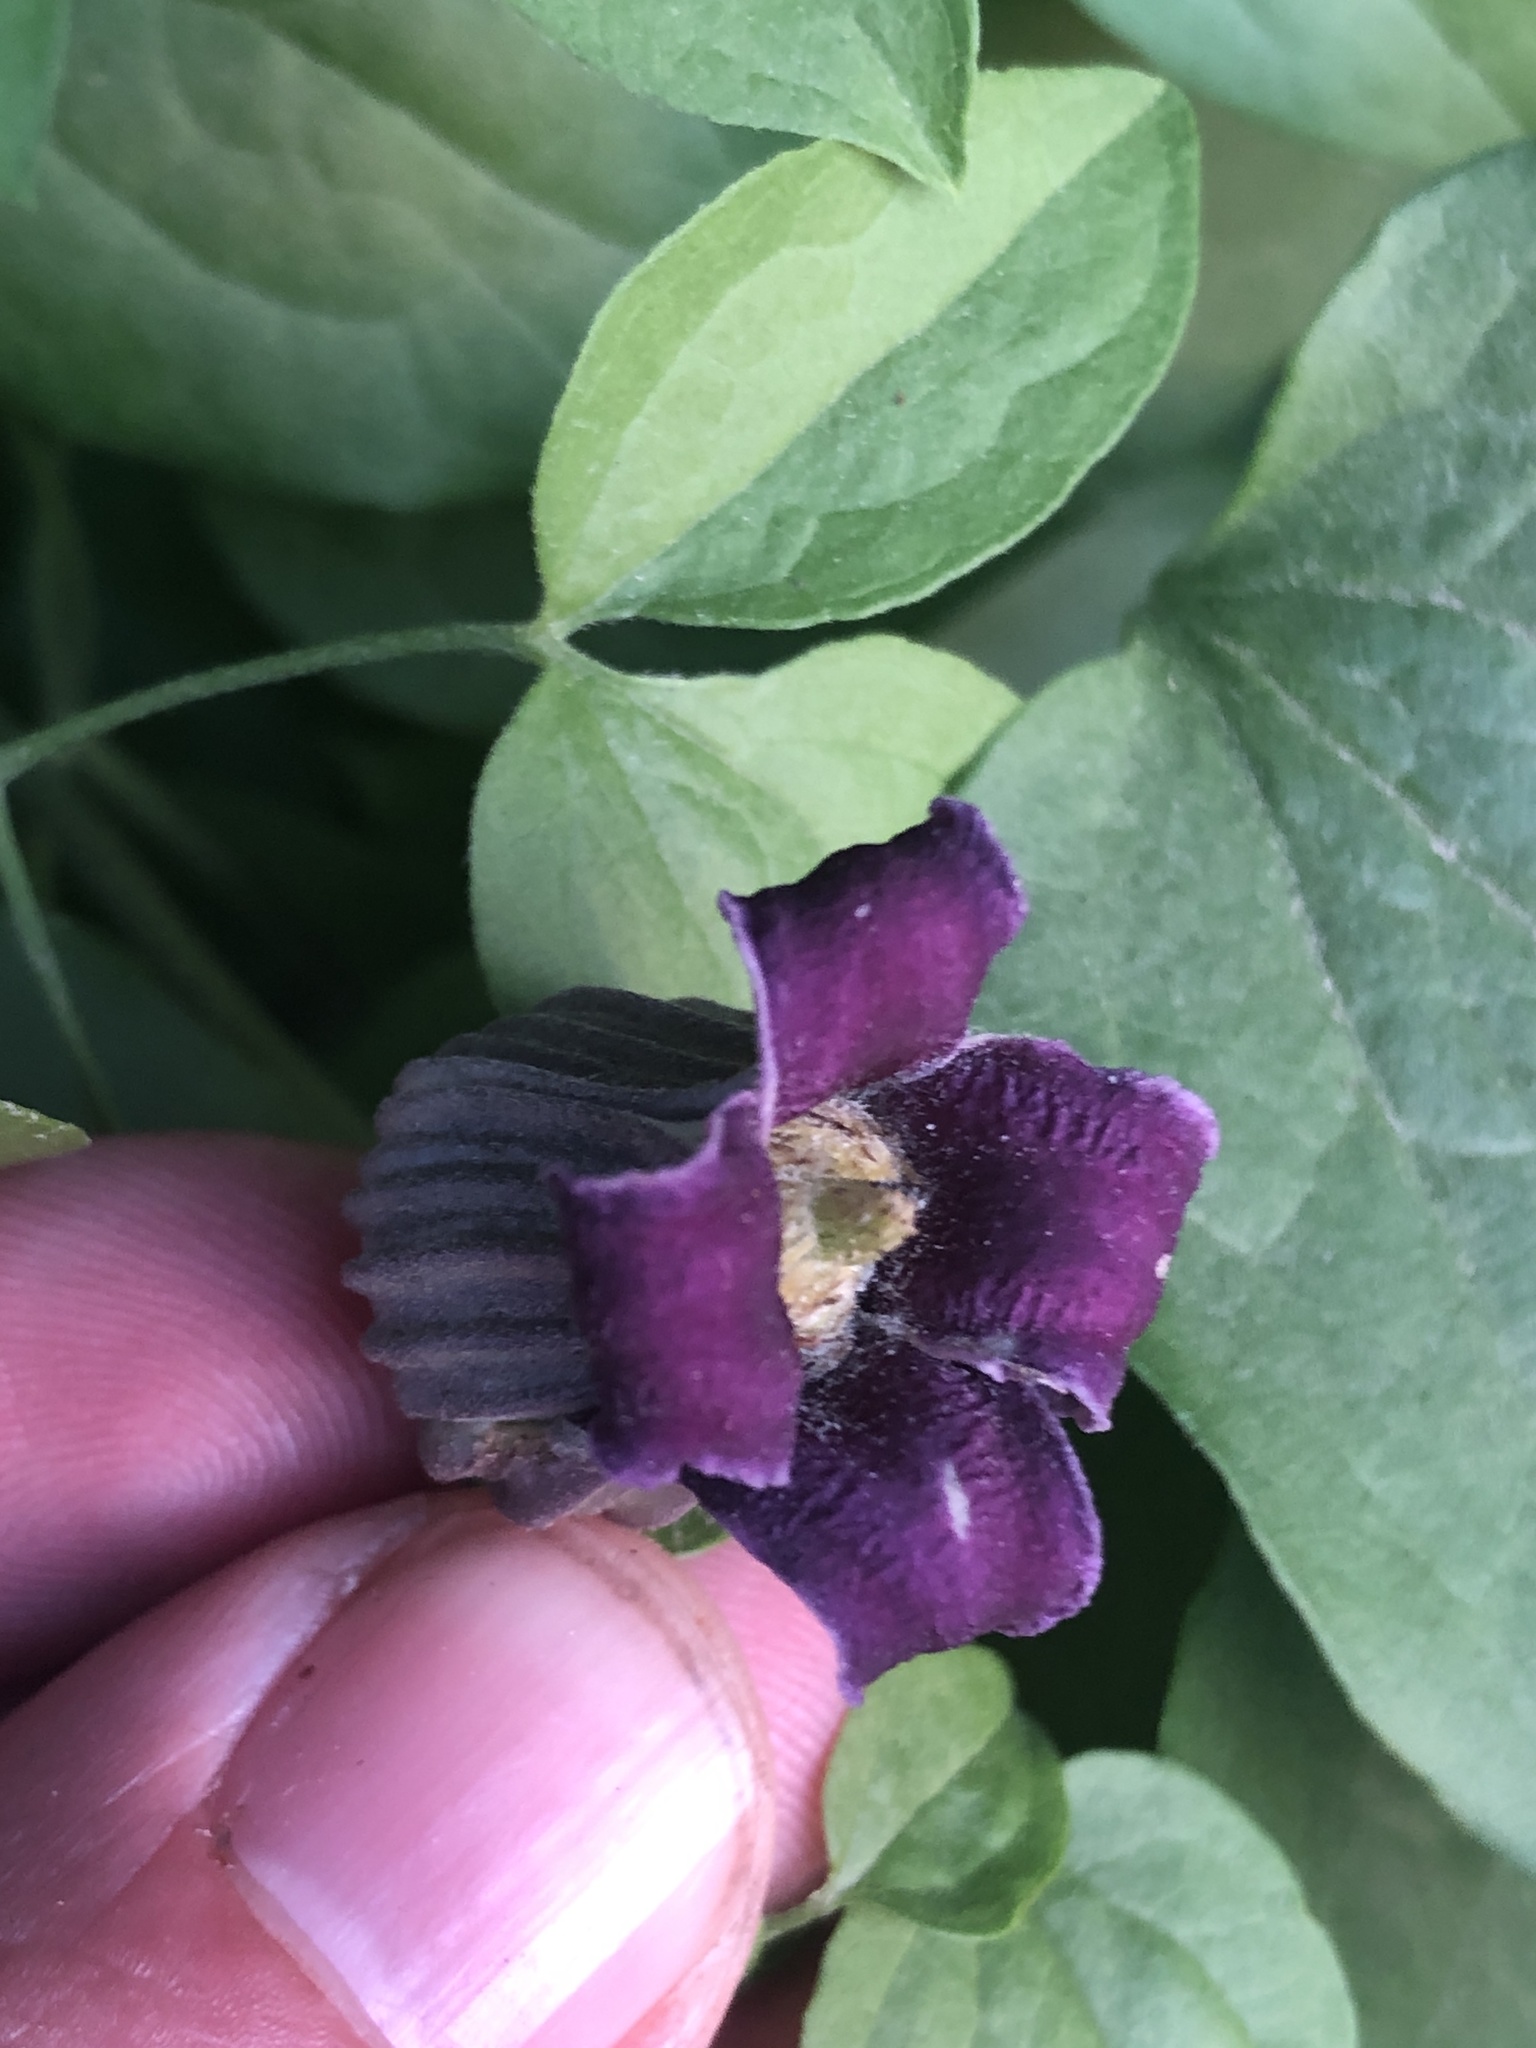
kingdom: Plantae
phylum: Tracheophyta
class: Magnoliopsida
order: Ranunculales
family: Ranunculaceae
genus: Clematis
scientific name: Clematis pitcheri
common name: Bellflower clematis
